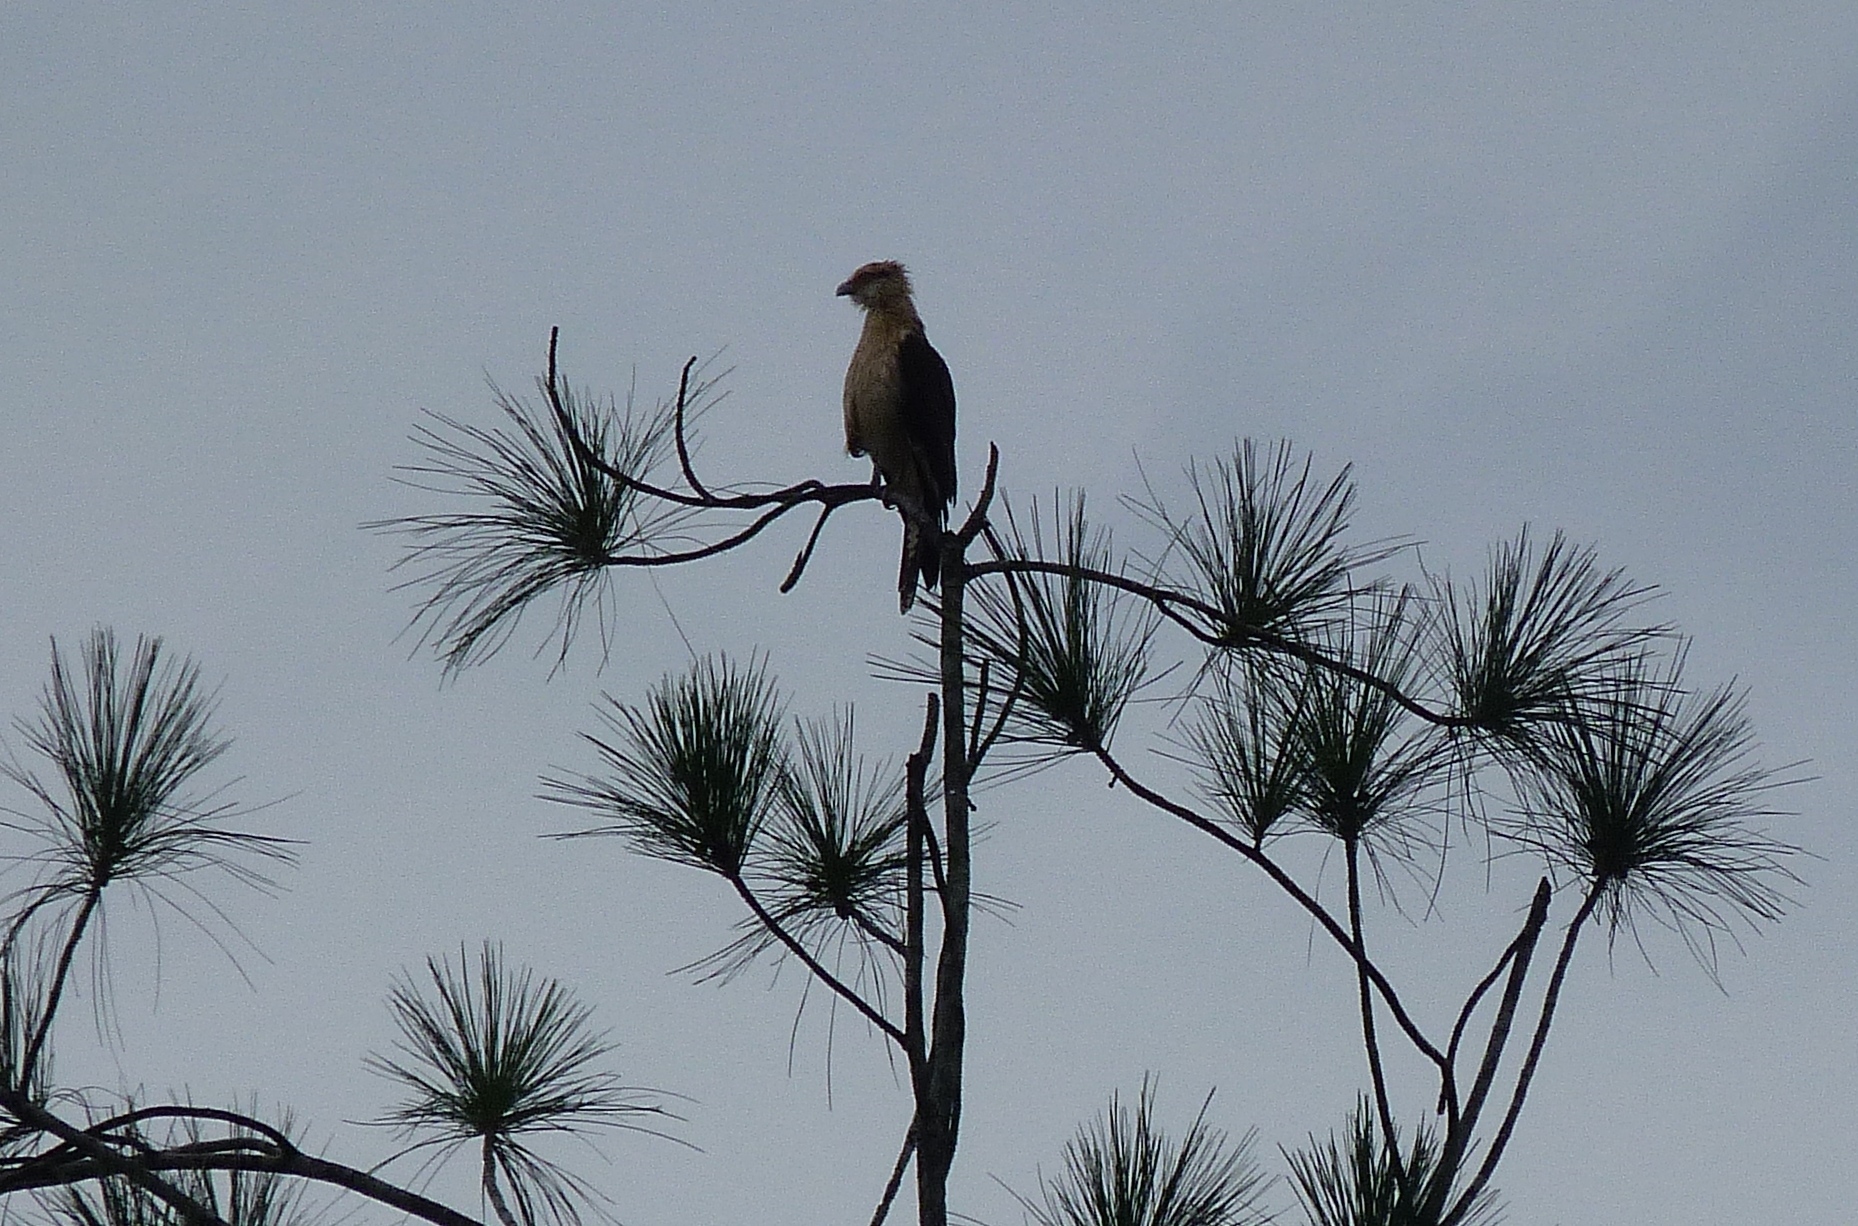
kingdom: Animalia
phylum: Chordata
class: Aves
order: Falconiformes
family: Falconidae
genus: Daptrius
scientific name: Daptrius
